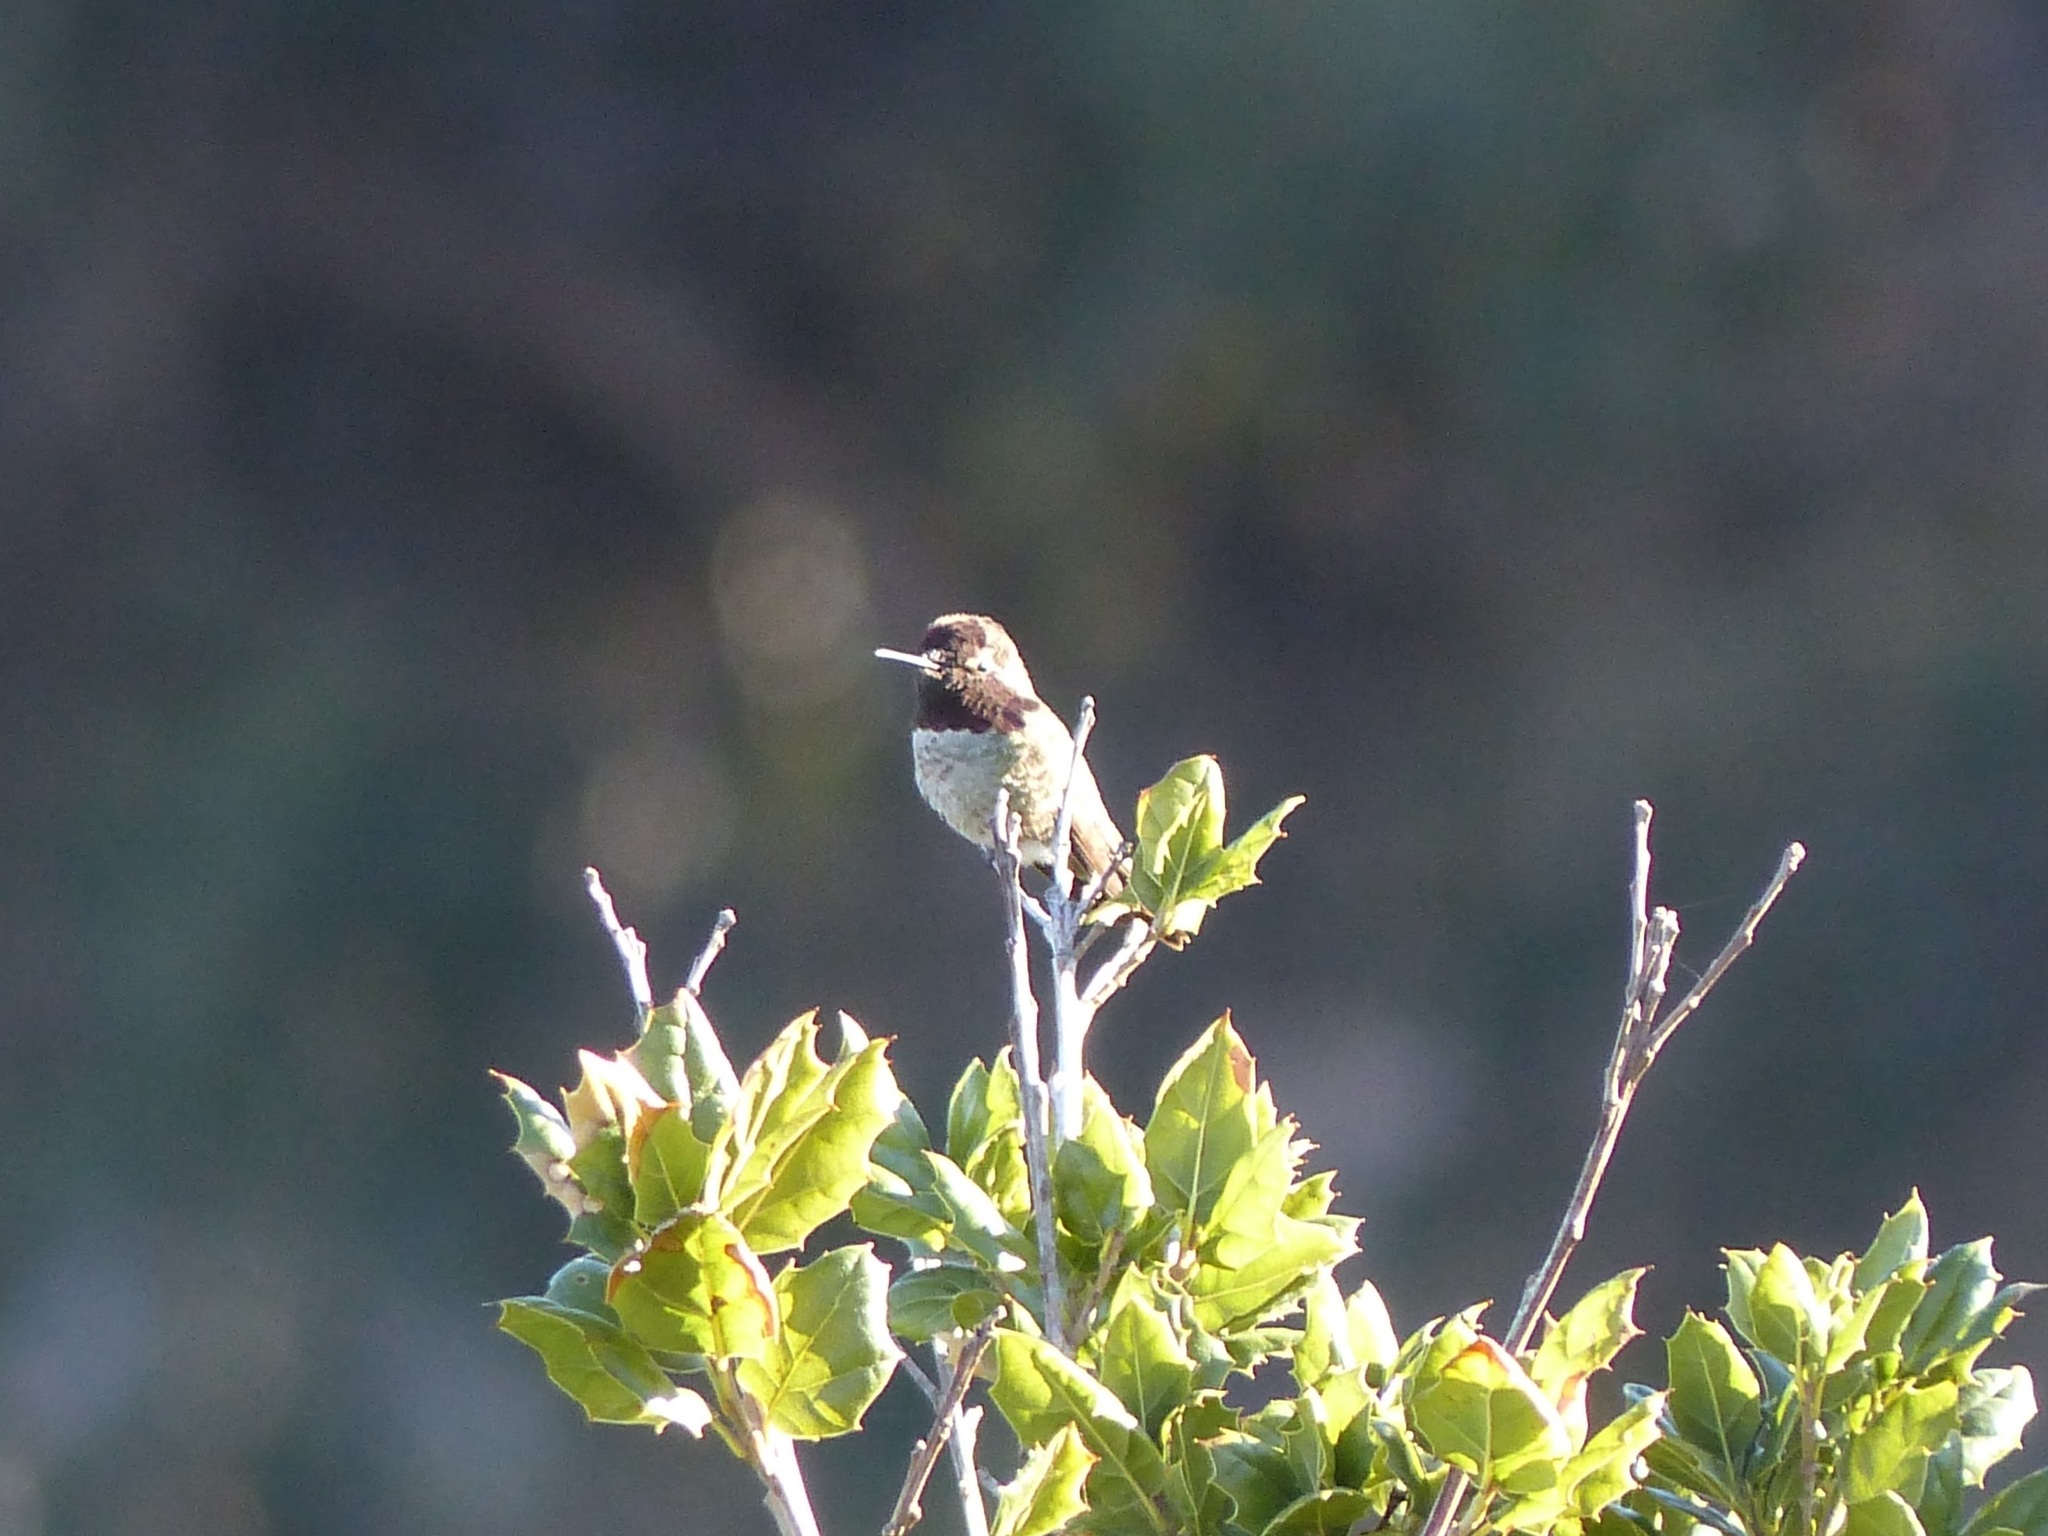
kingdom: Animalia
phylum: Chordata
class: Aves
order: Apodiformes
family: Trochilidae
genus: Calypte
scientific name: Calypte anna
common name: Anna's hummingbird
